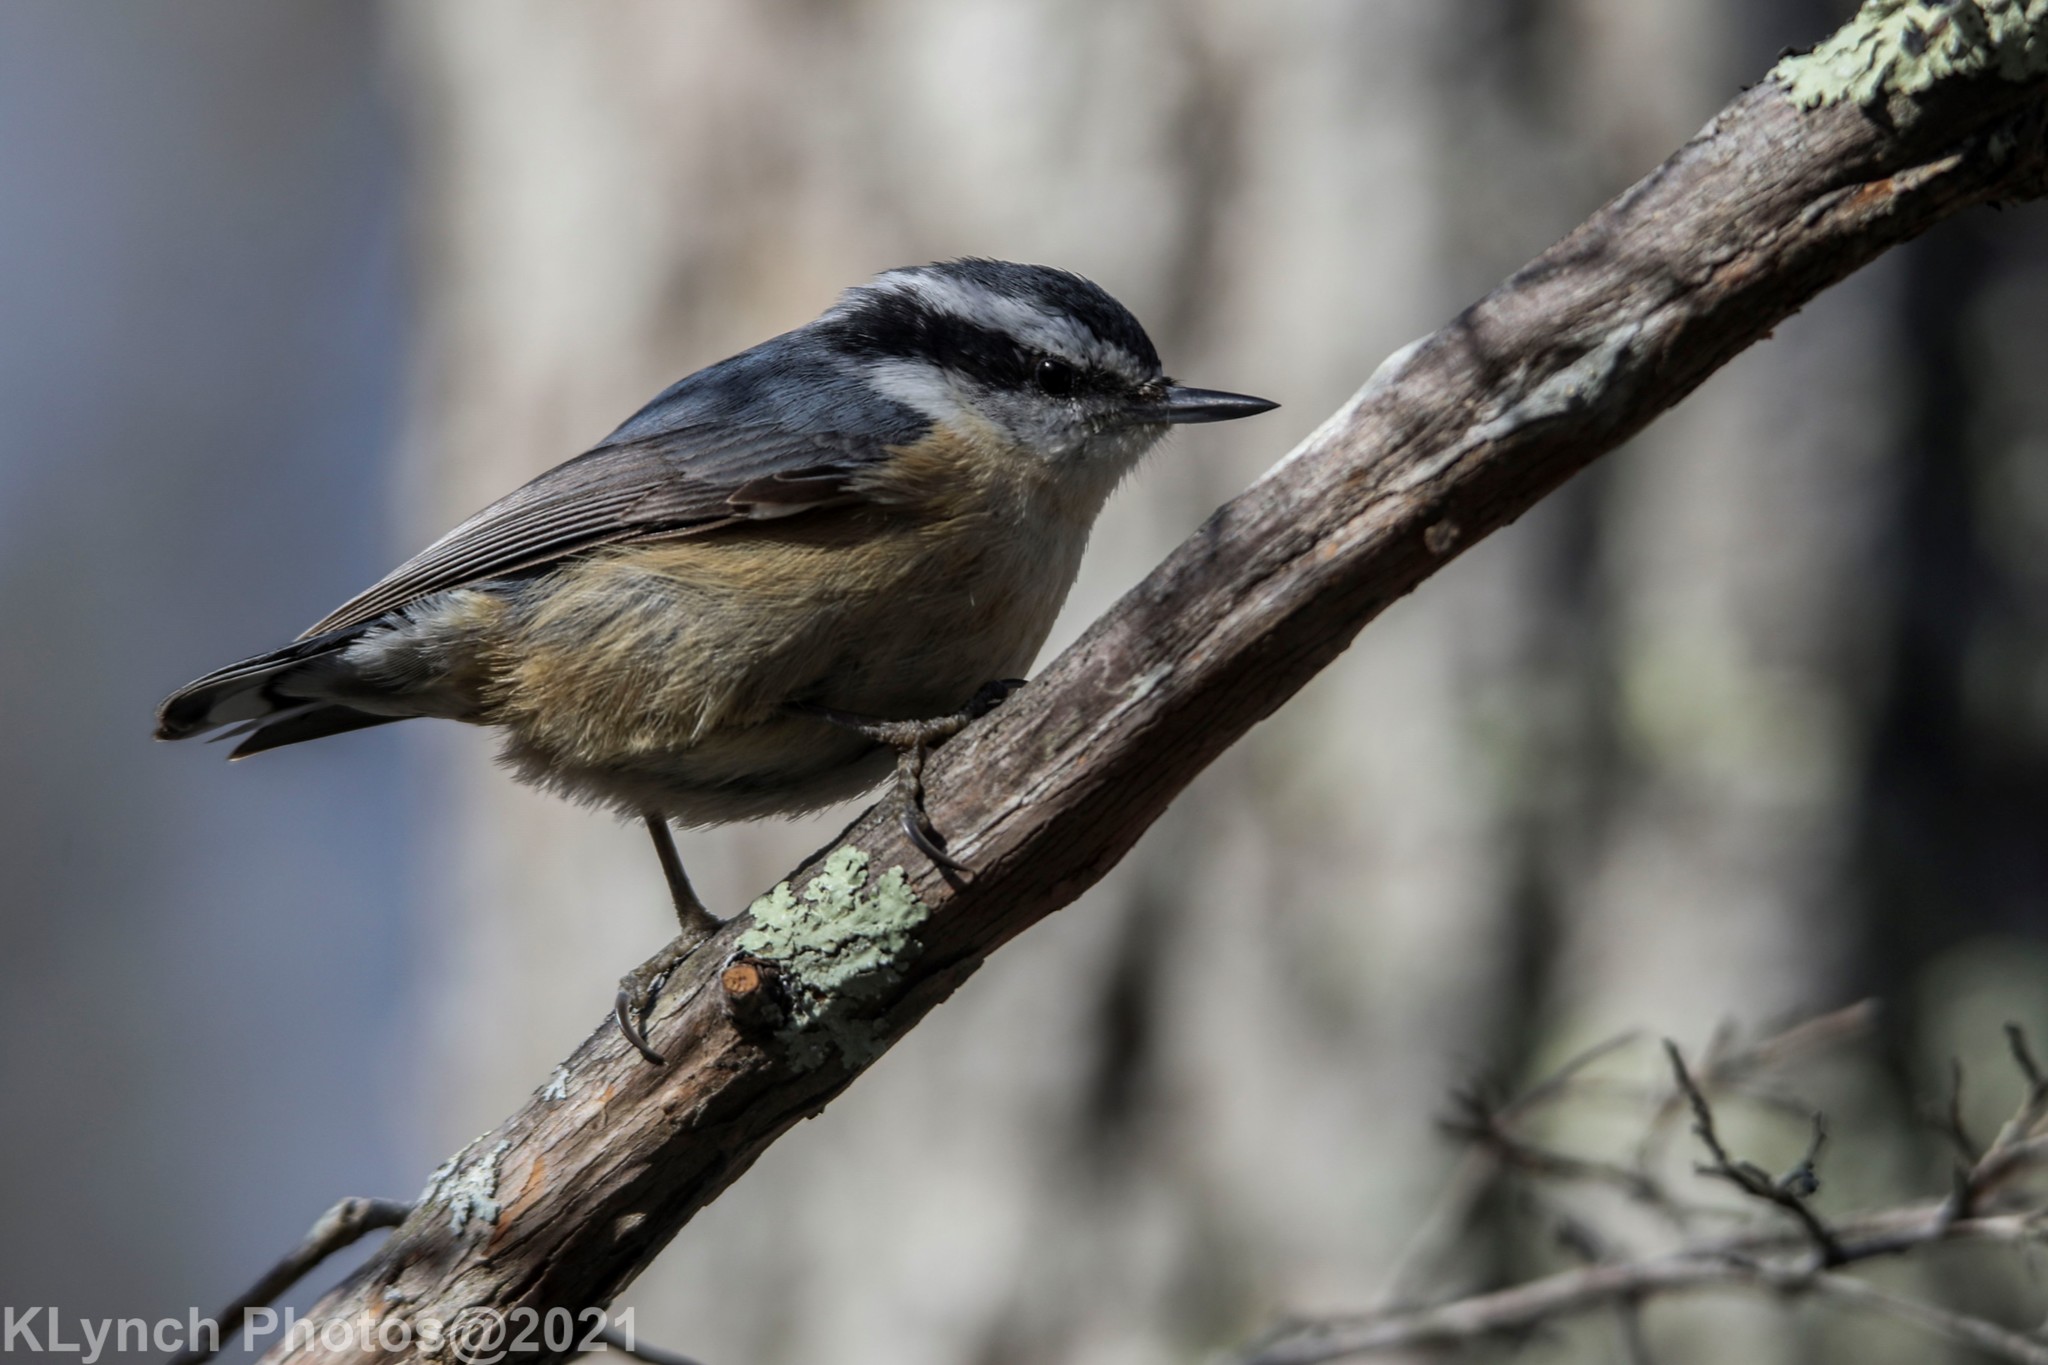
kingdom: Animalia
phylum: Chordata
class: Aves
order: Passeriformes
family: Sittidae
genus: Sitta
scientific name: Sitta canadensis
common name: Red-breasted nuthatch
